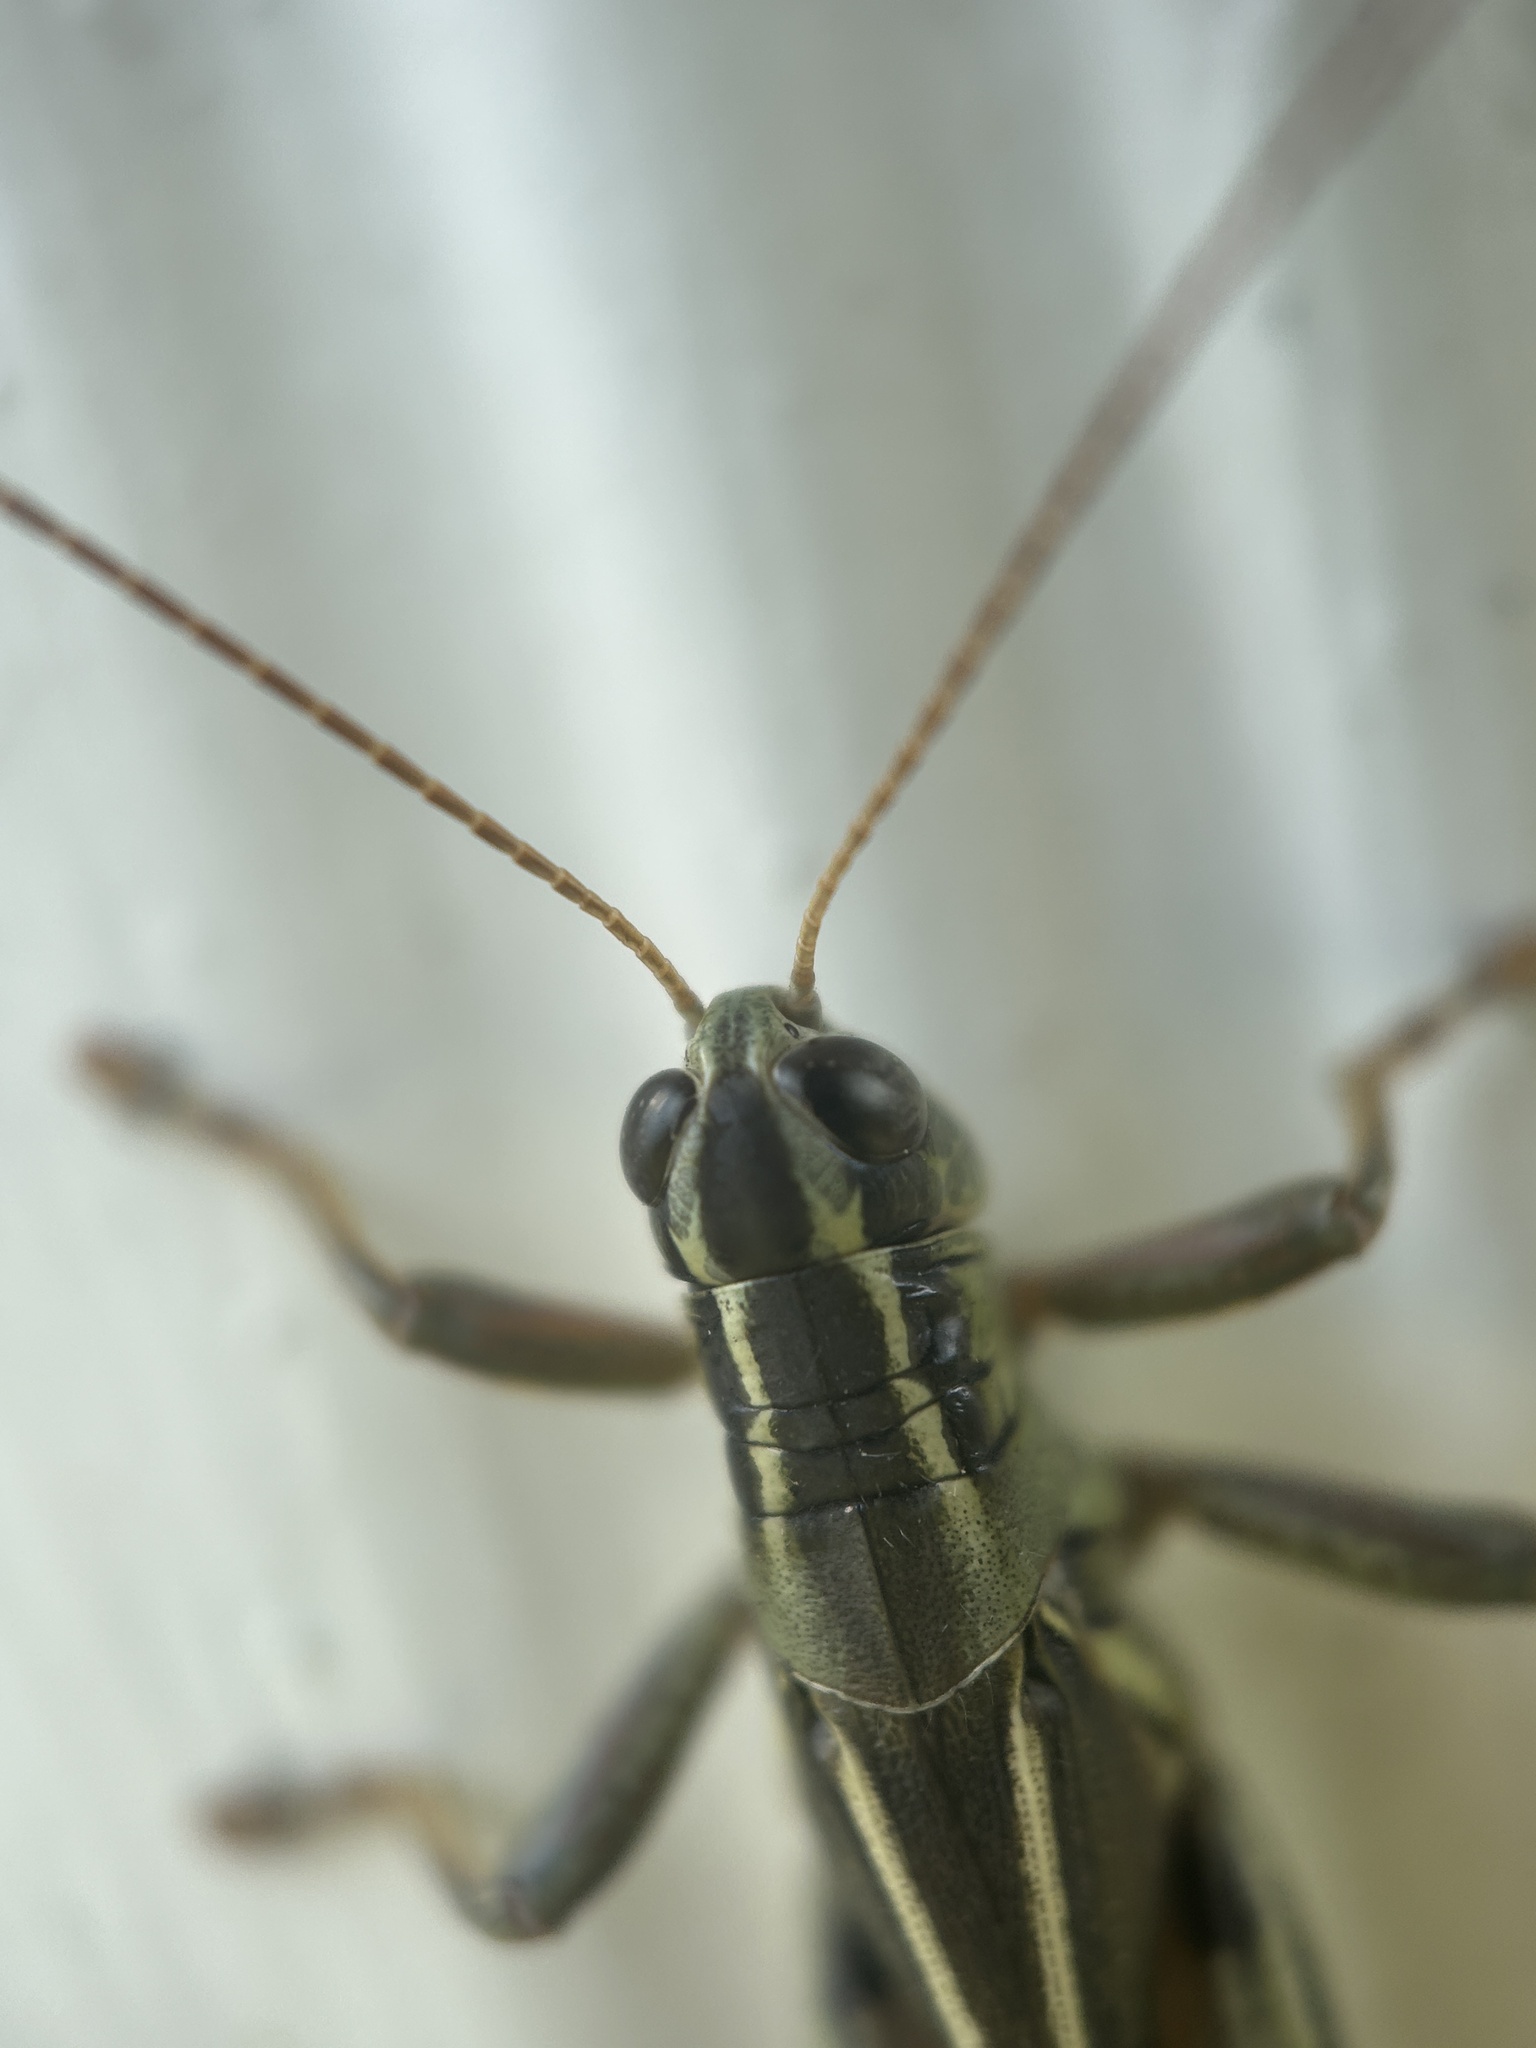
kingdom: Animalia
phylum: Arthropoda
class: Insecta
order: Orthoptera
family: Acrididae
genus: Melanoplus
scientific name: Melanoplus bivittatus
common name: Two-striped grasshopper
